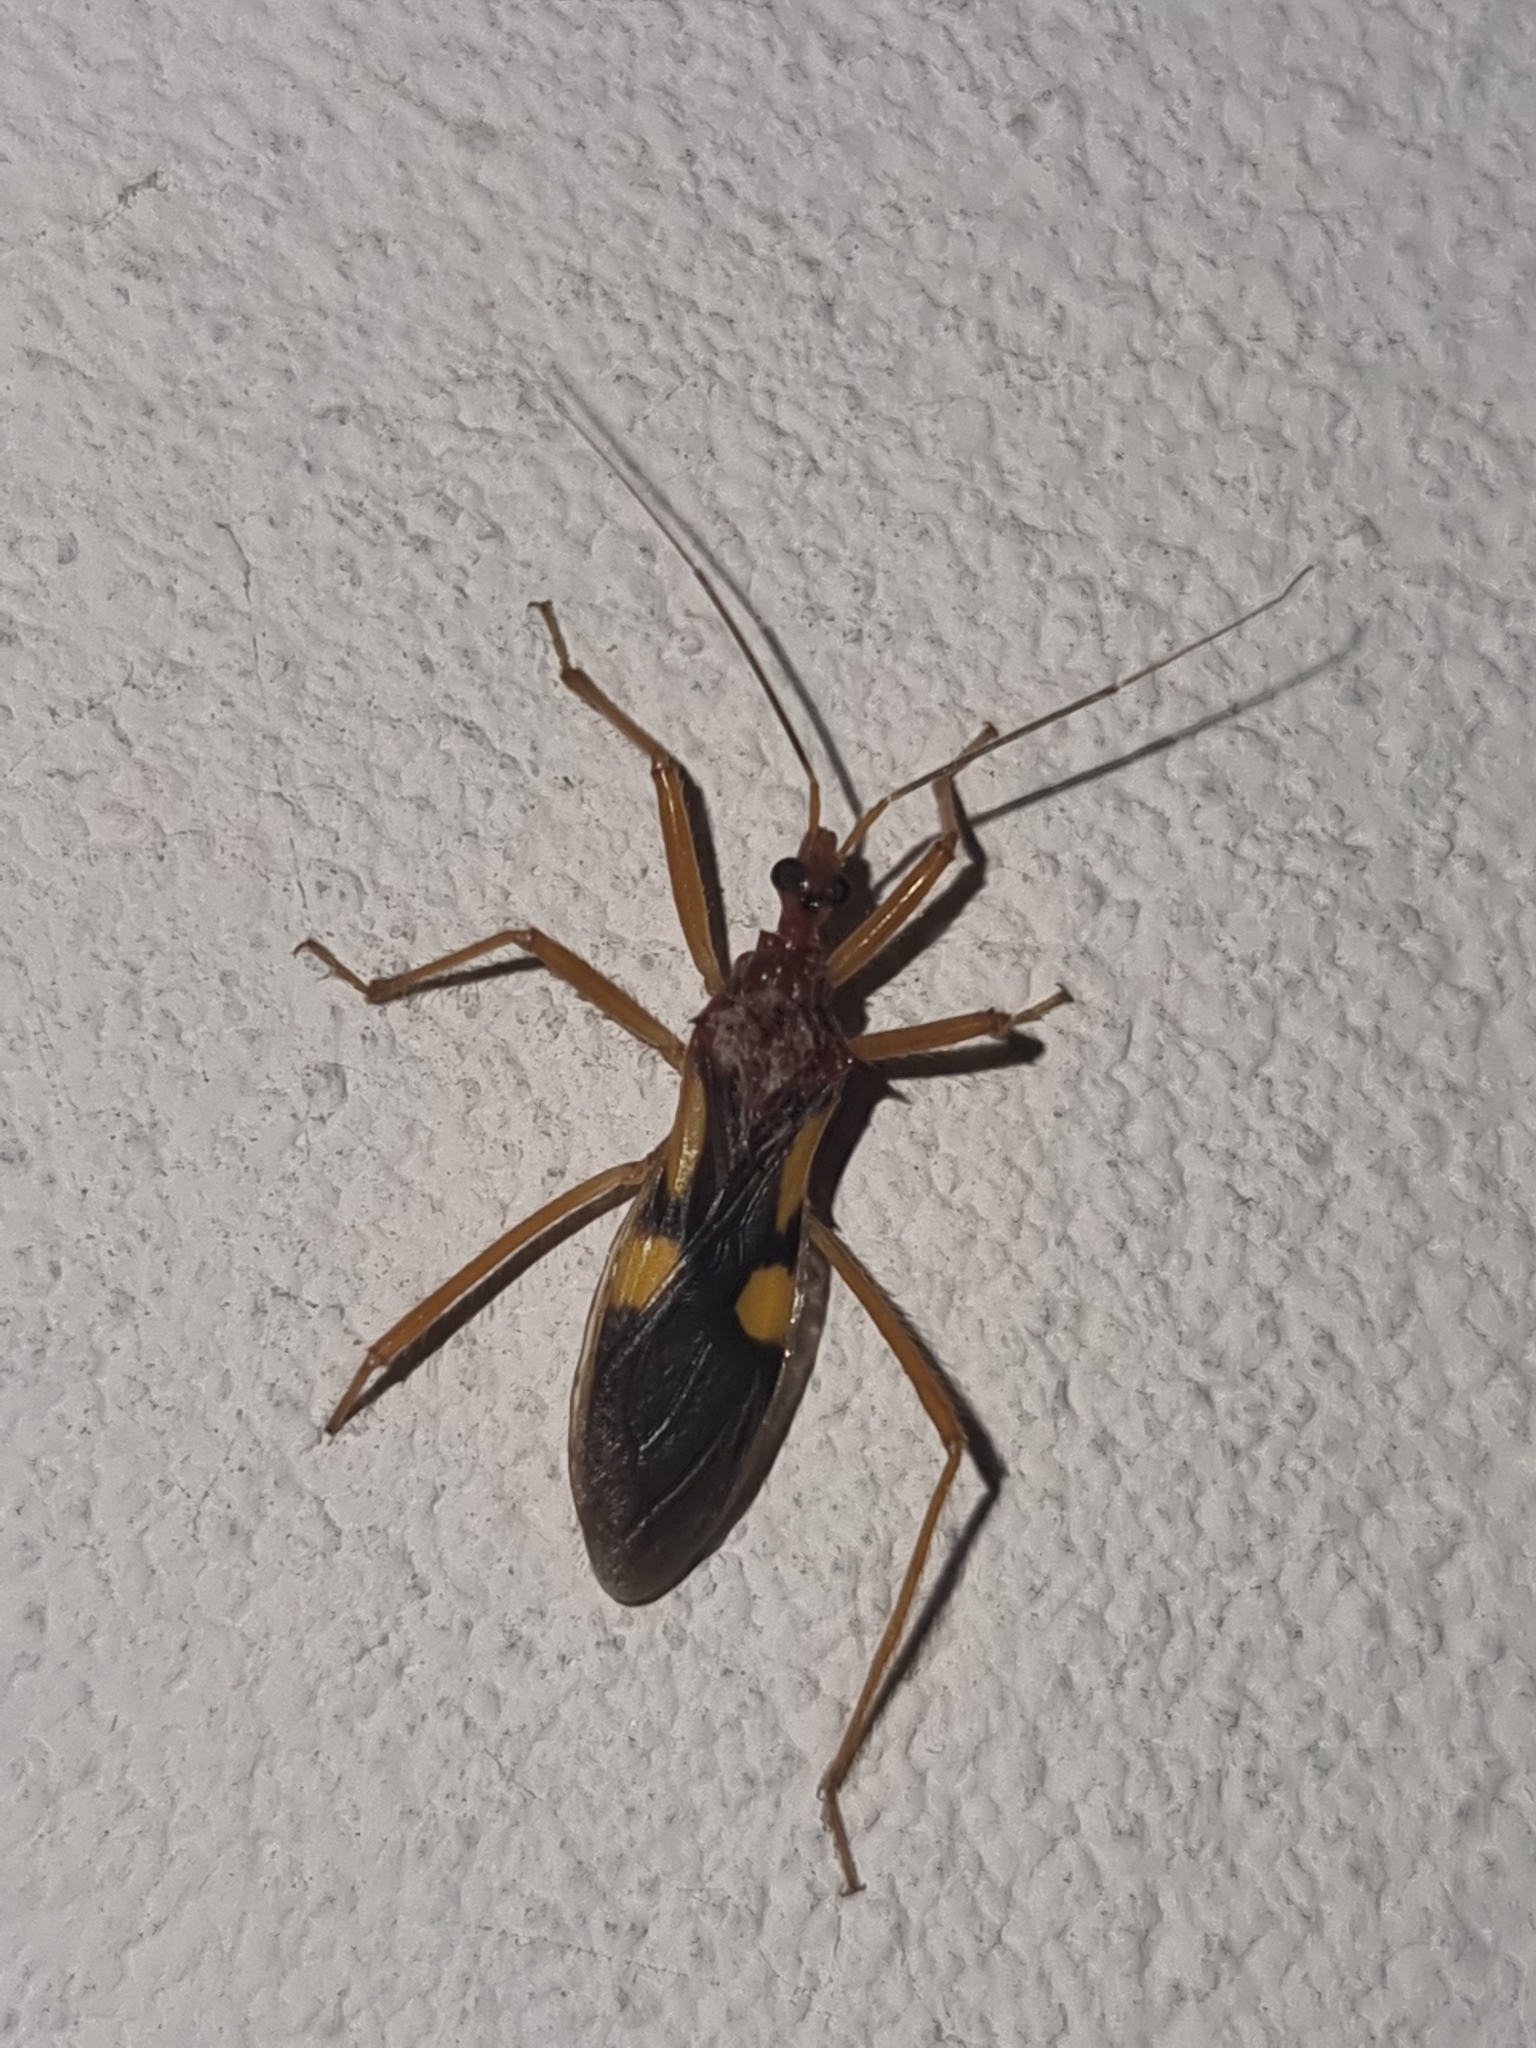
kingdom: Animalia
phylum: Arthropoda
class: Insecta
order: Hemiptera
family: Reduviidae
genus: Zelurus
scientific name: Zelurus transnominalis
